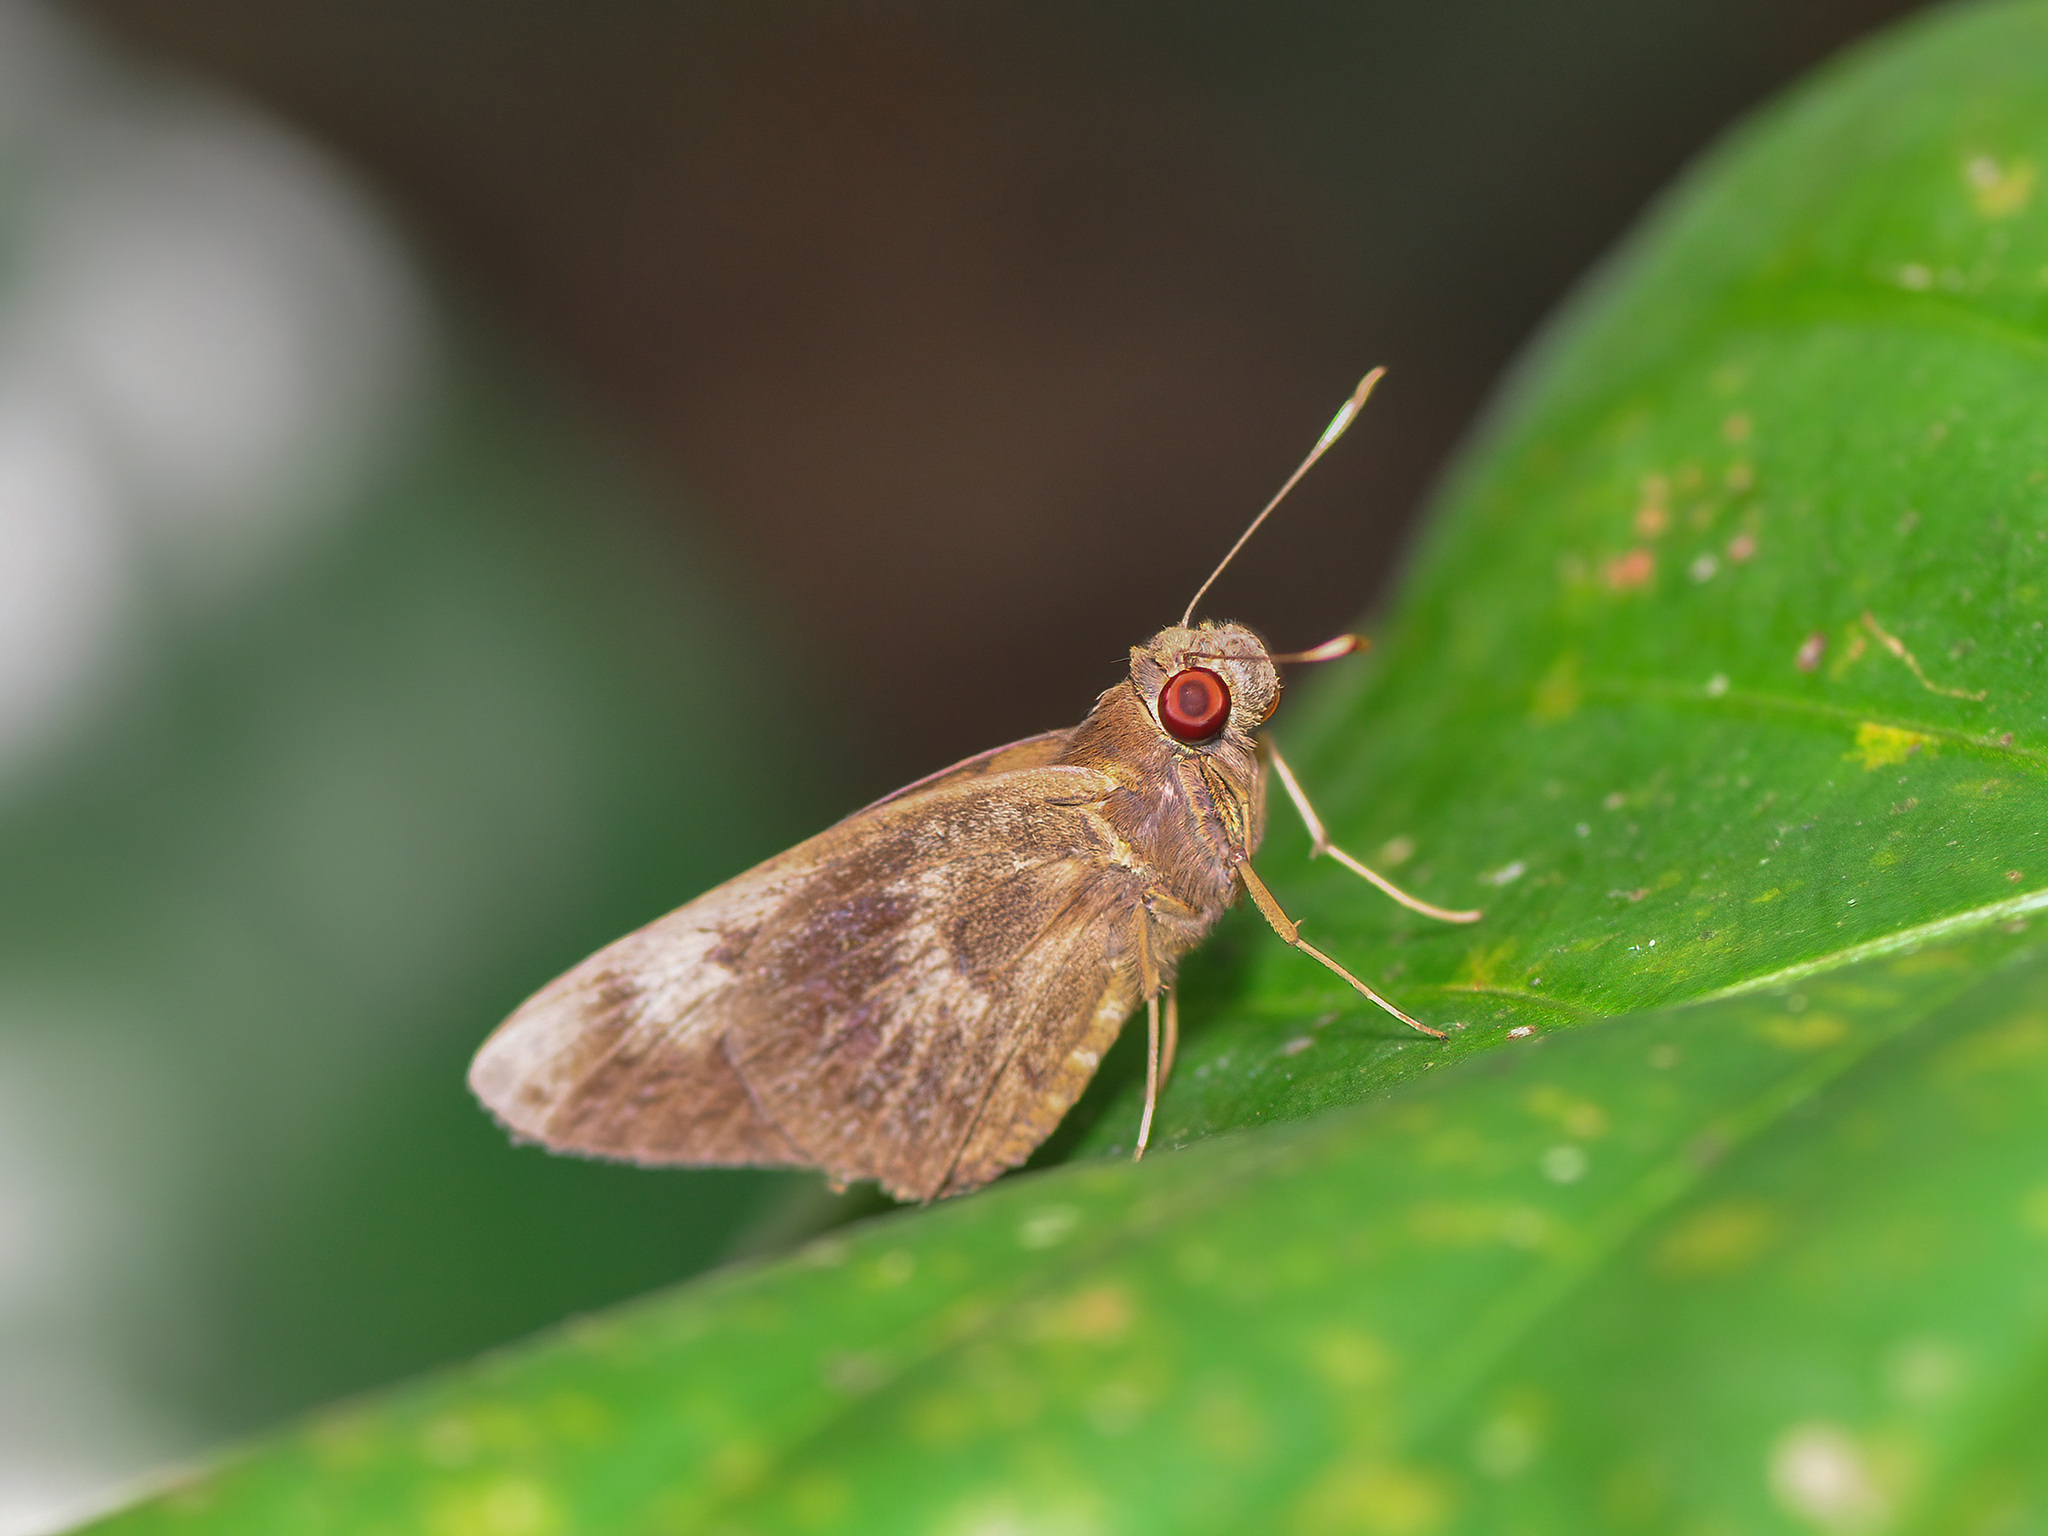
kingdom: Animalia
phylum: Arthropoda
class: Insecta
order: Lepidoptera
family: Hesperiidae
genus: Erionota
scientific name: Erionota acroleucus
